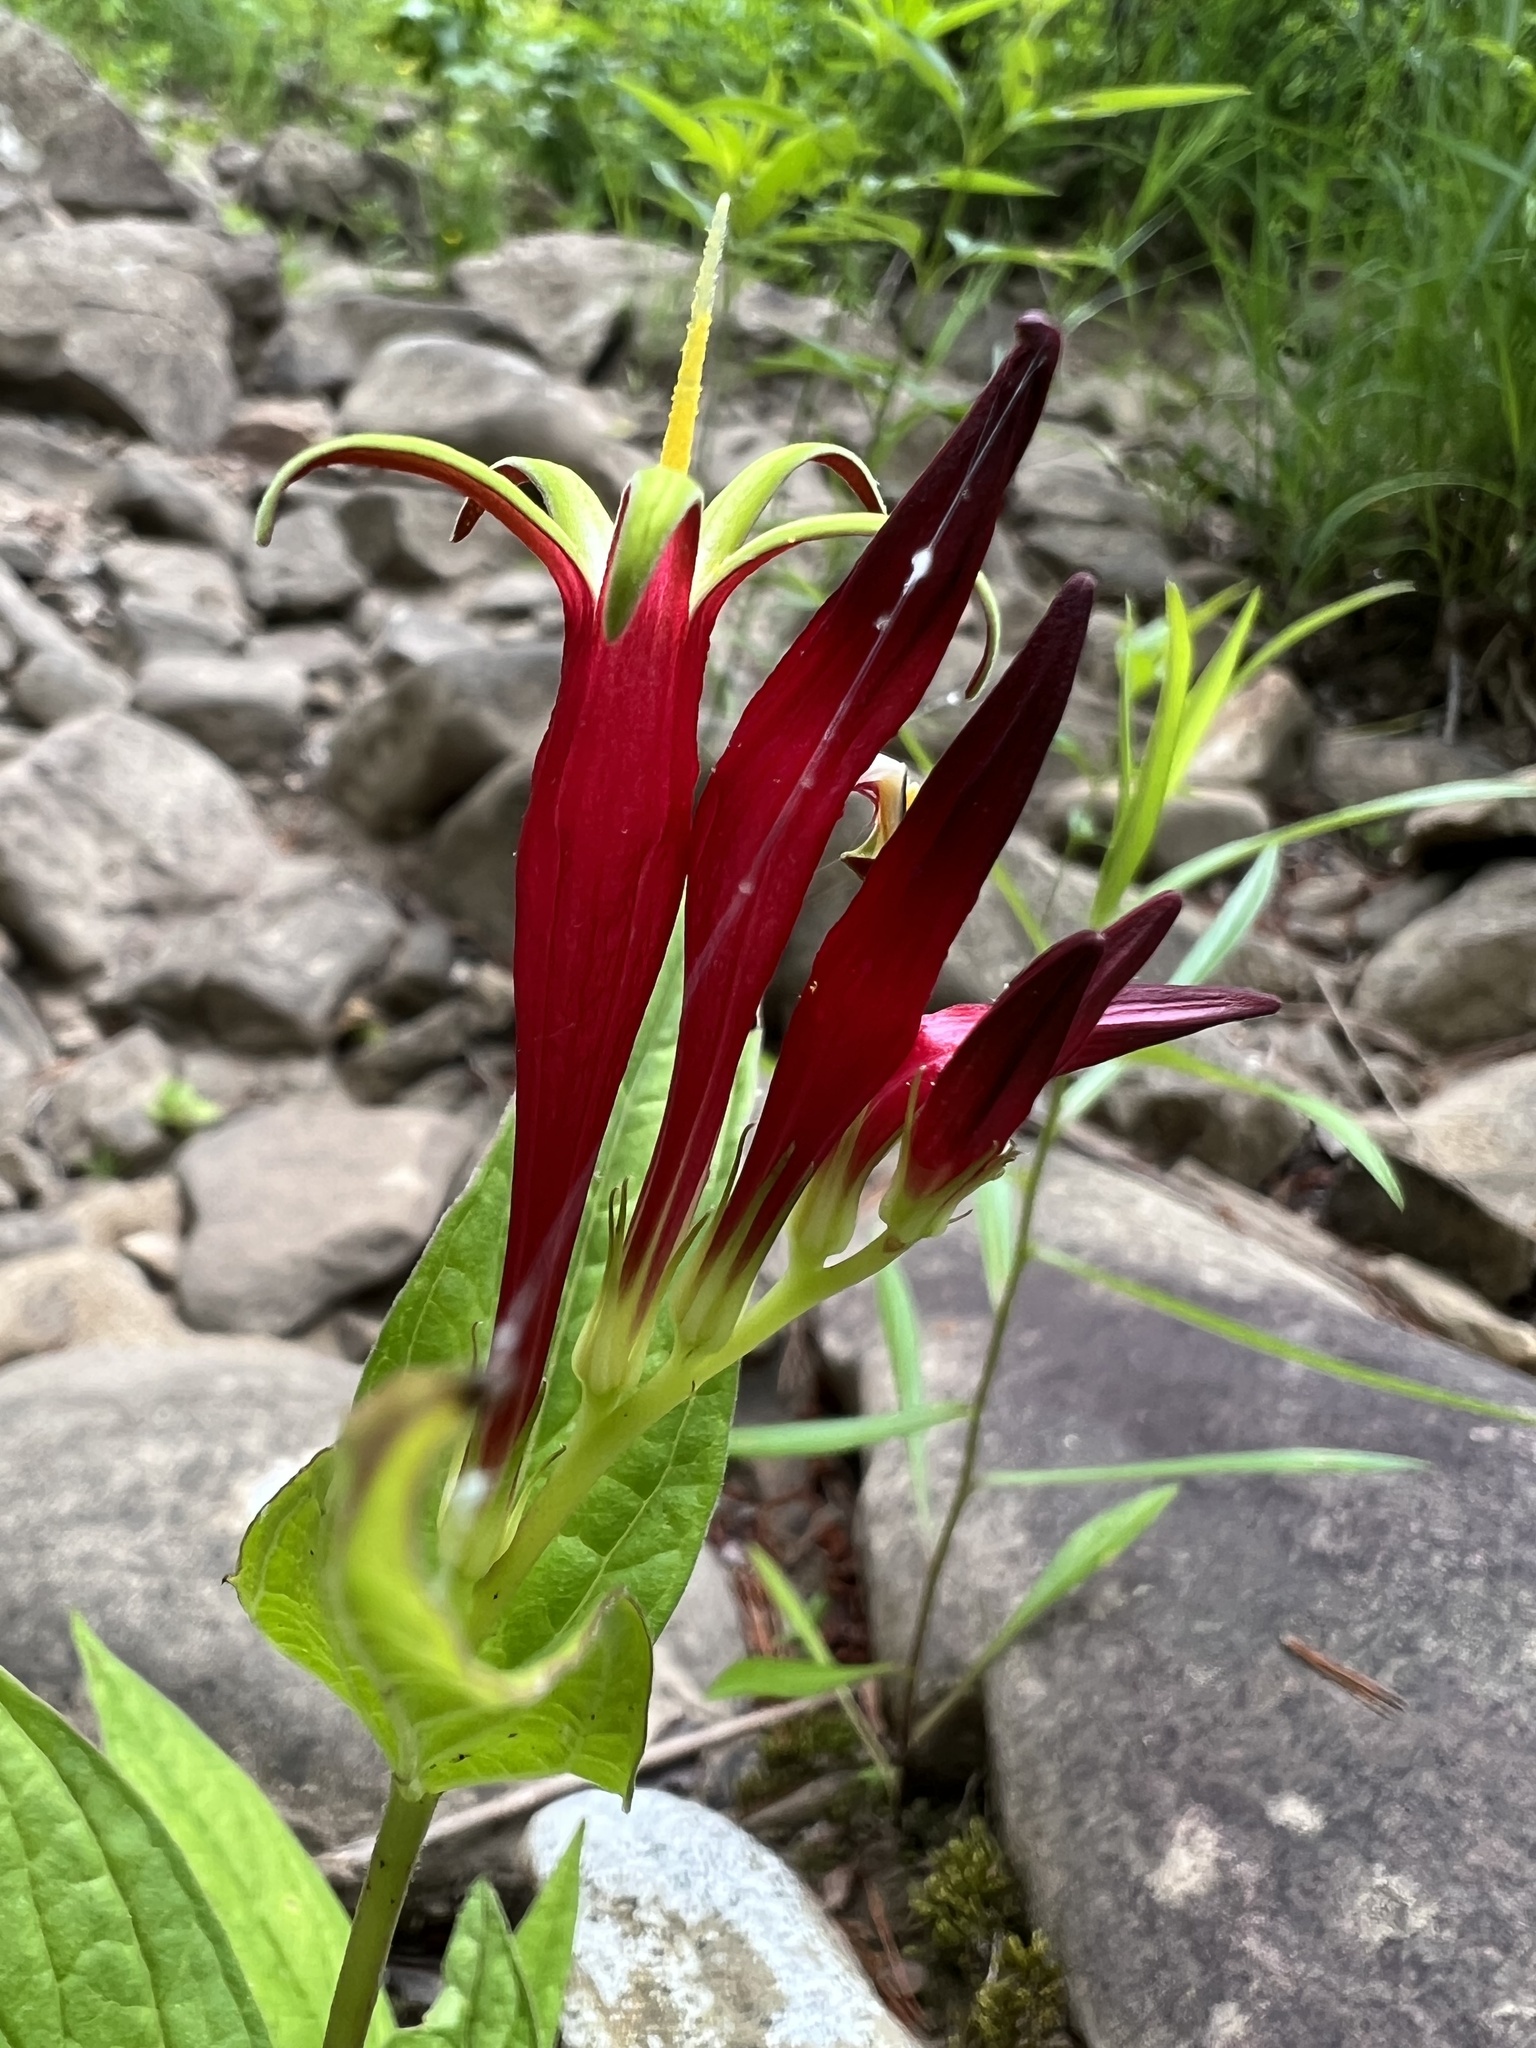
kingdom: Plantae
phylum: Tracheophyta
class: Magnoliopsida
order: Gentianales
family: Loganiaceae
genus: Spigelia
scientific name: Spigelia marilandica
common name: Indian-pink
